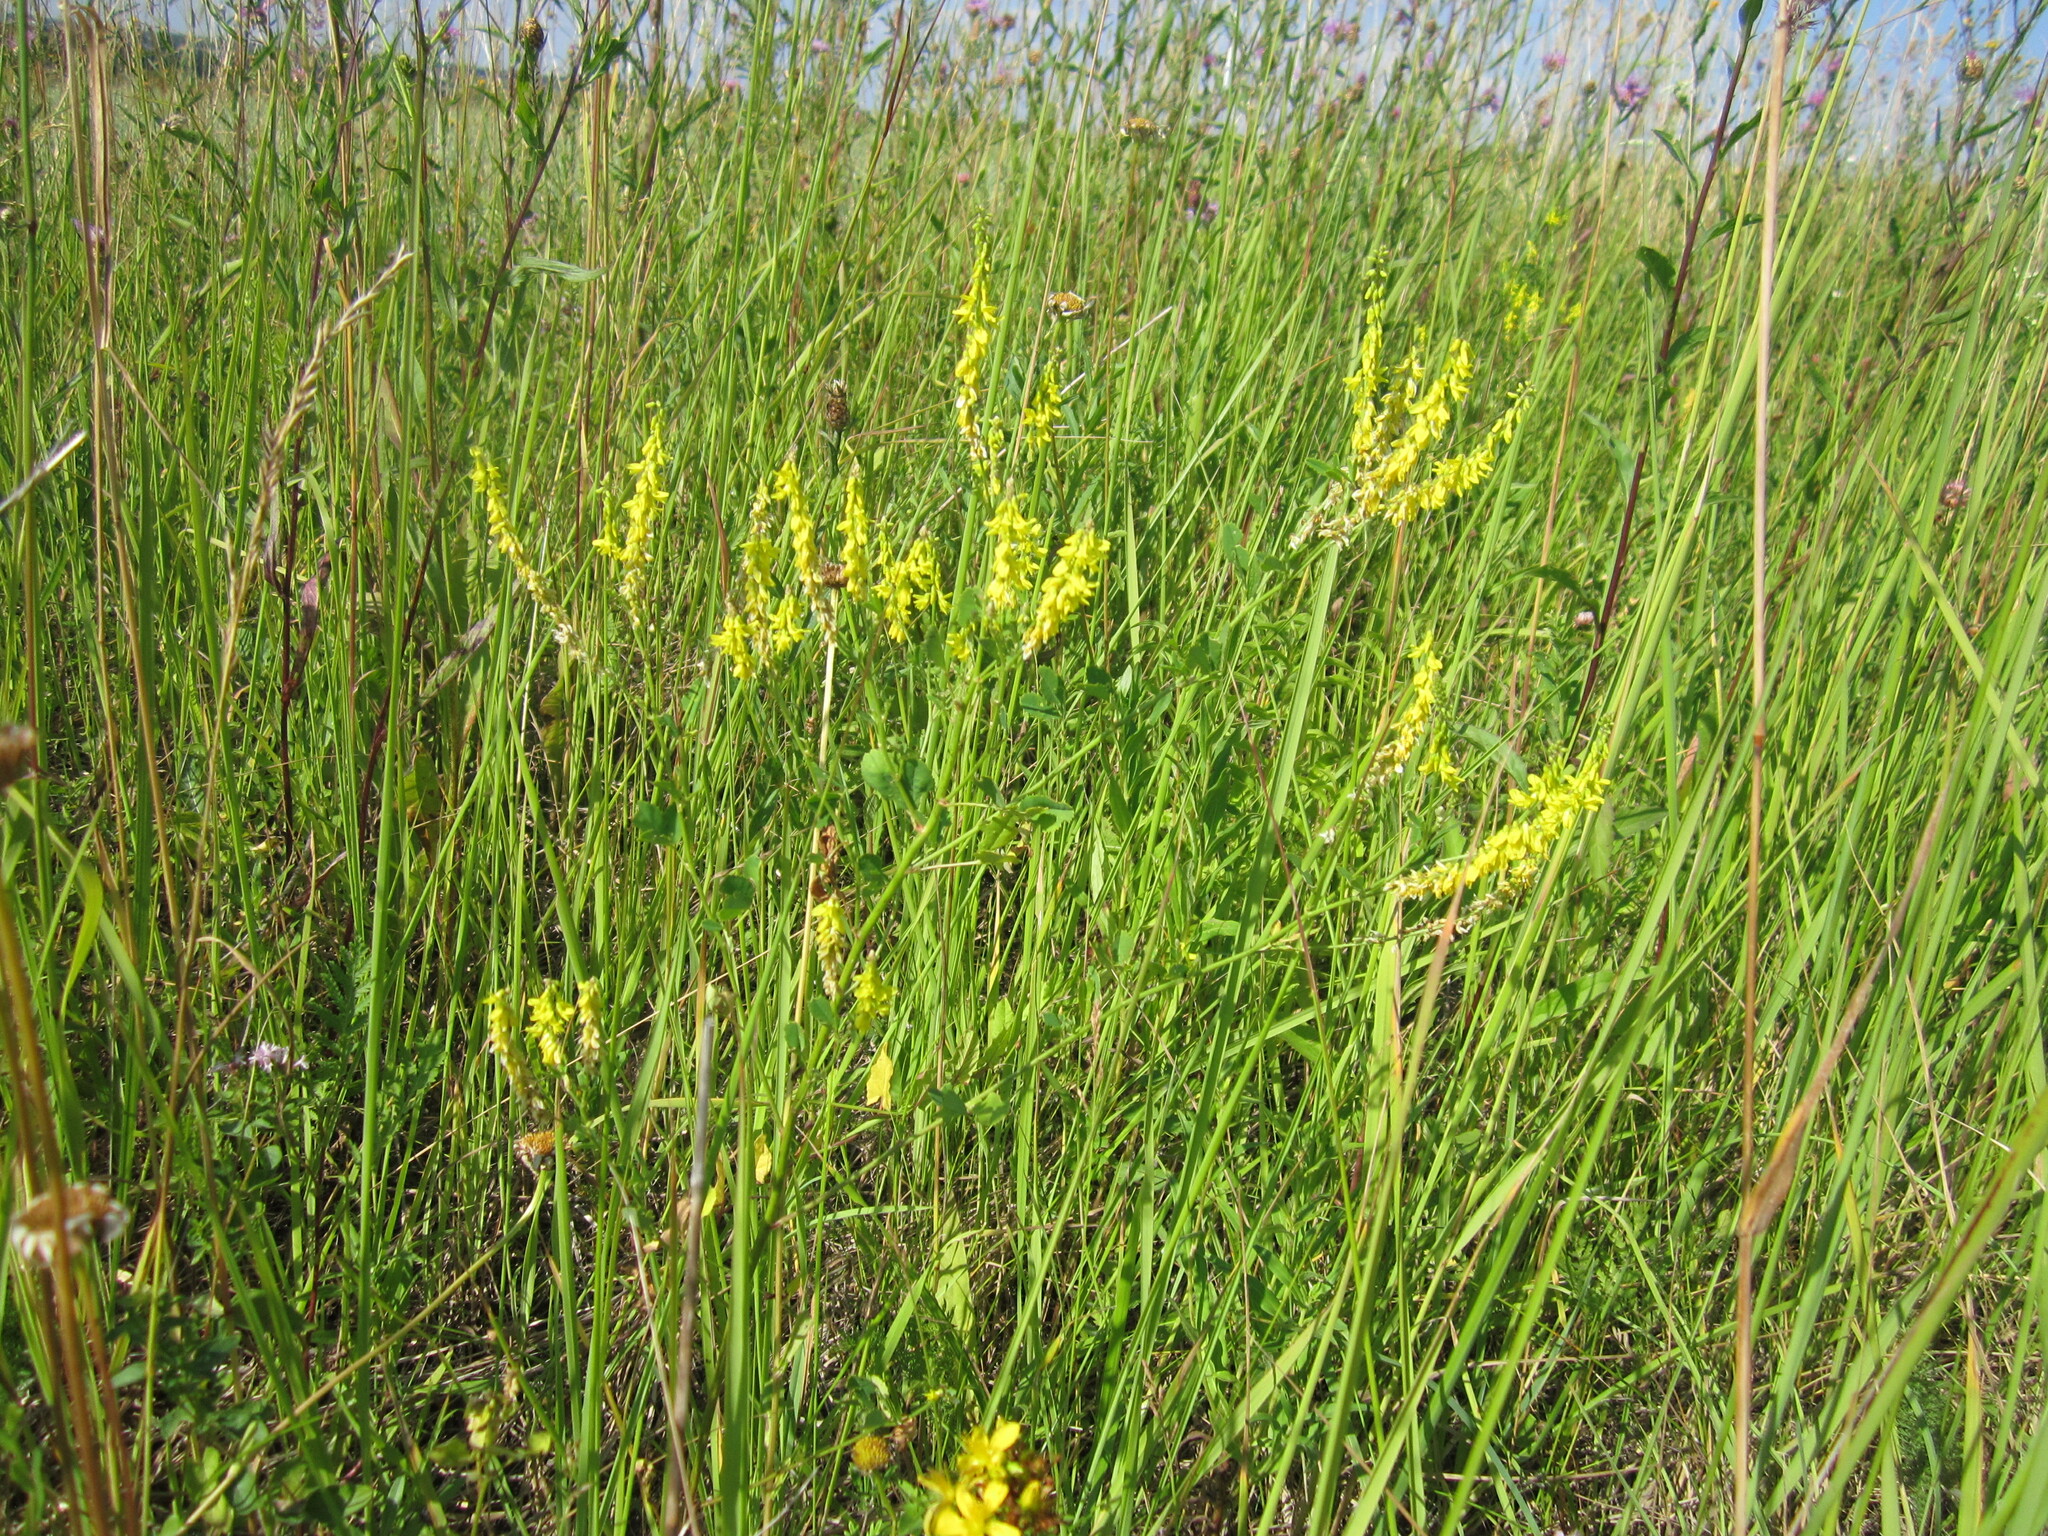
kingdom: Plantae
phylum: Tracheophyta
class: Magnoliopsida
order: Fabales
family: Fabaceae
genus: Melilotus
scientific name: Melilotus officinalis
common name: Sweetclover
